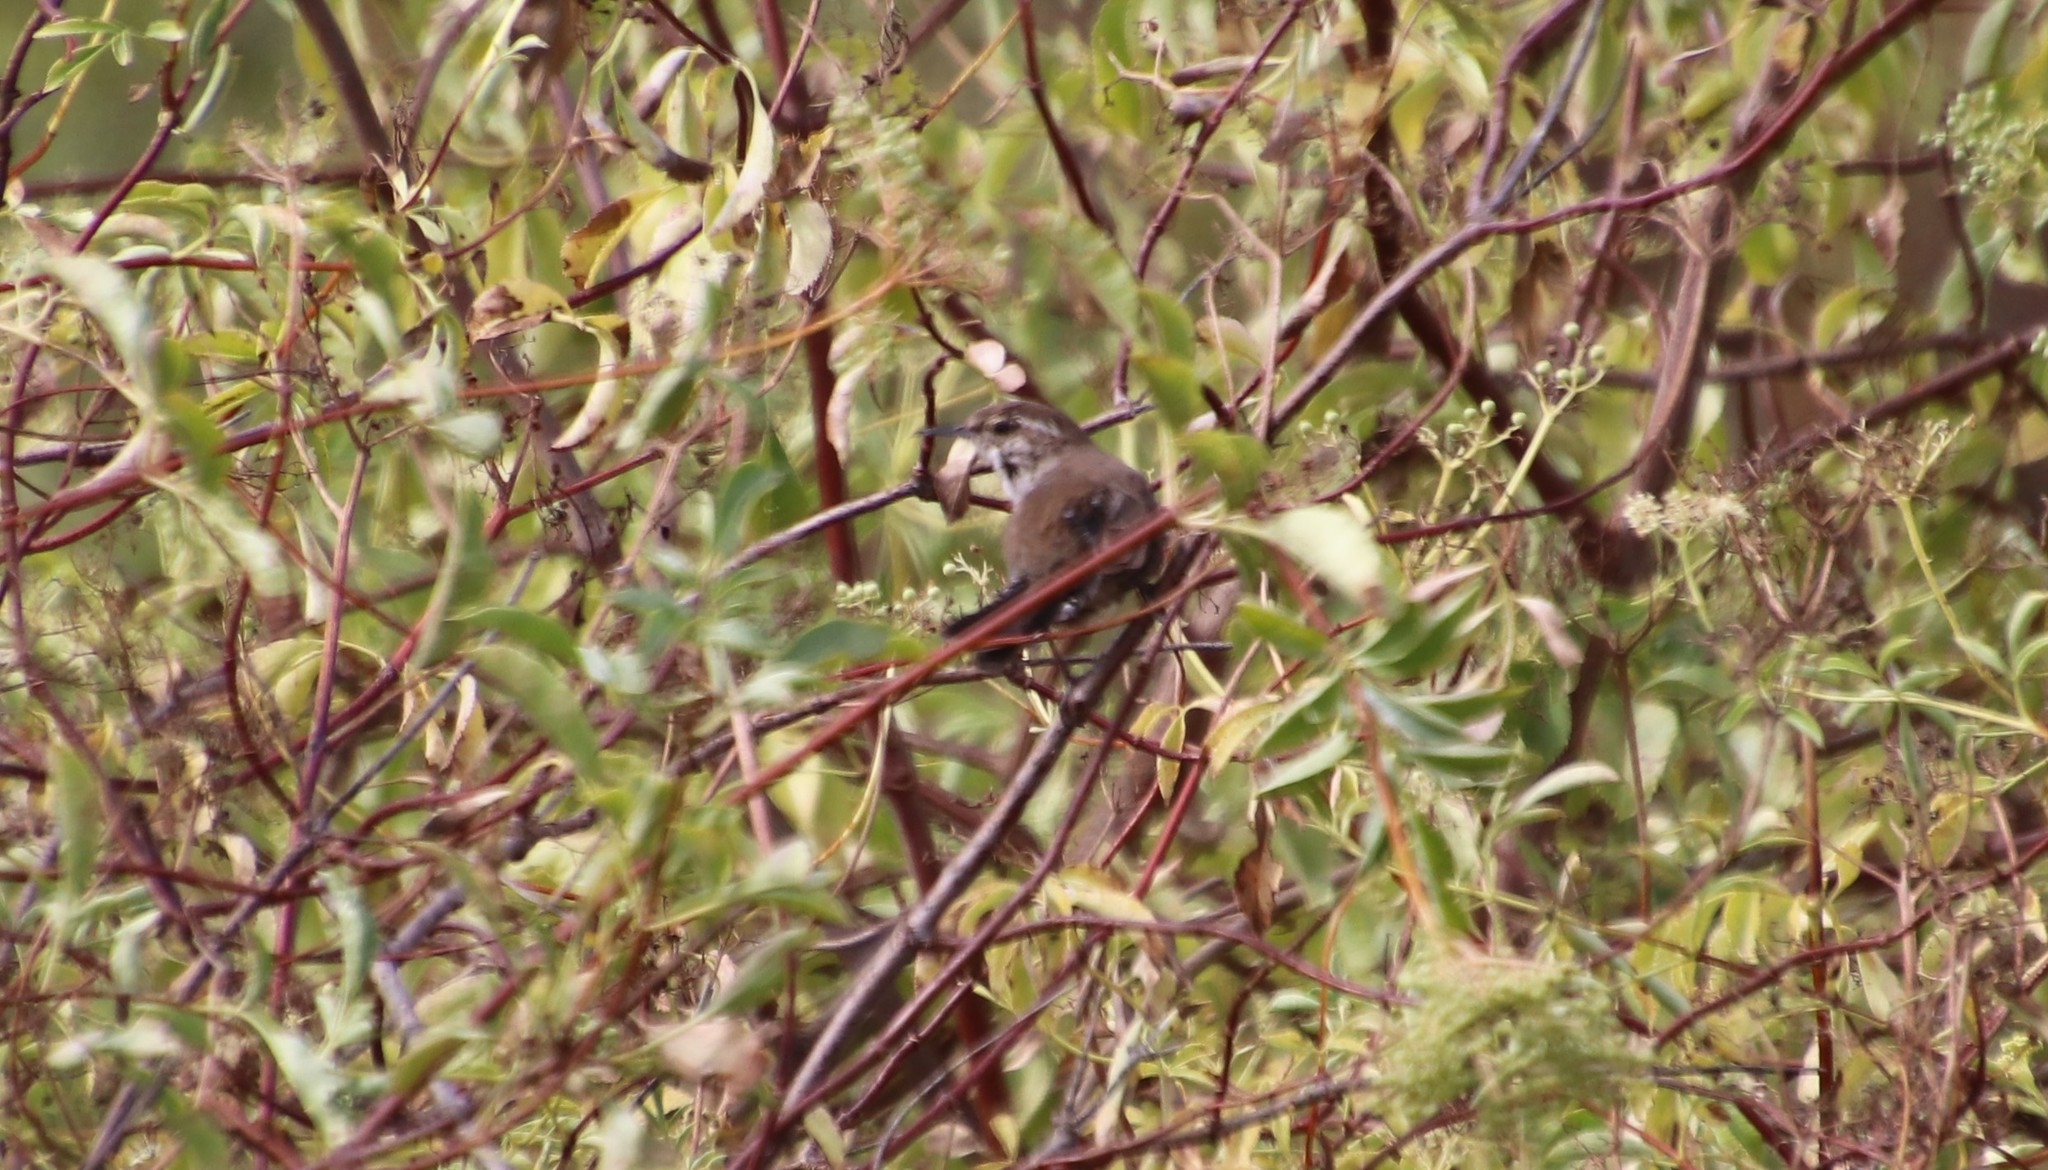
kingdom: Animalia
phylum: Chordata
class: Aves
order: Passeriformes
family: Troglodytidae
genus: Thryomanes
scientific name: Thryomanes bewickii
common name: Bewick's wren
